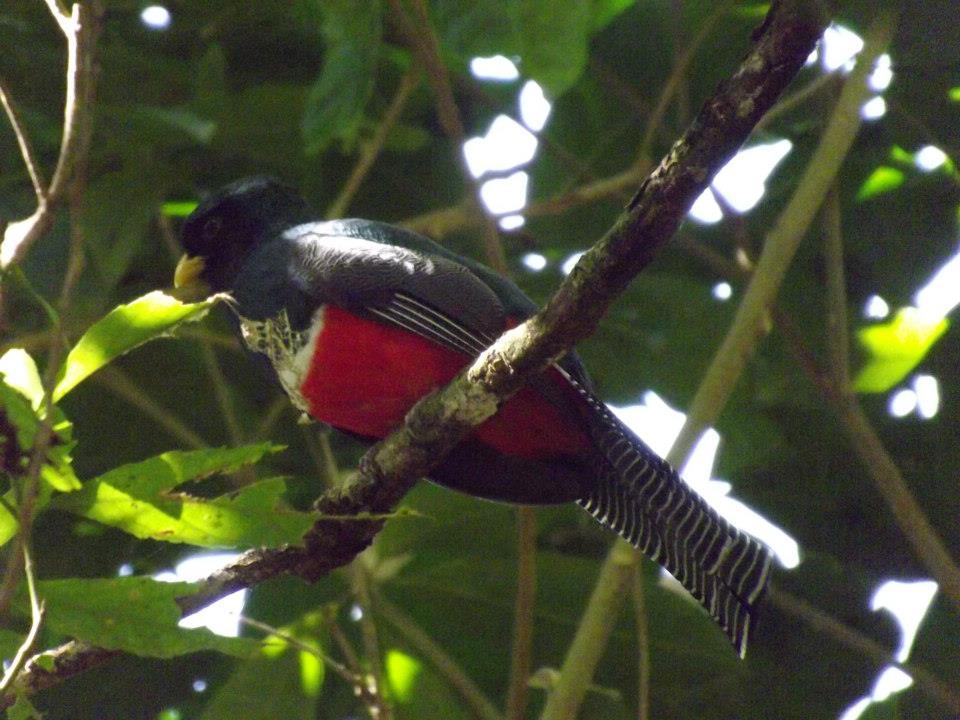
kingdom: Animalia
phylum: Chordata
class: Aves
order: Trogoniformes
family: Trogonidae
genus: Trogon
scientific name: Trogon collaris
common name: Collared trogon
